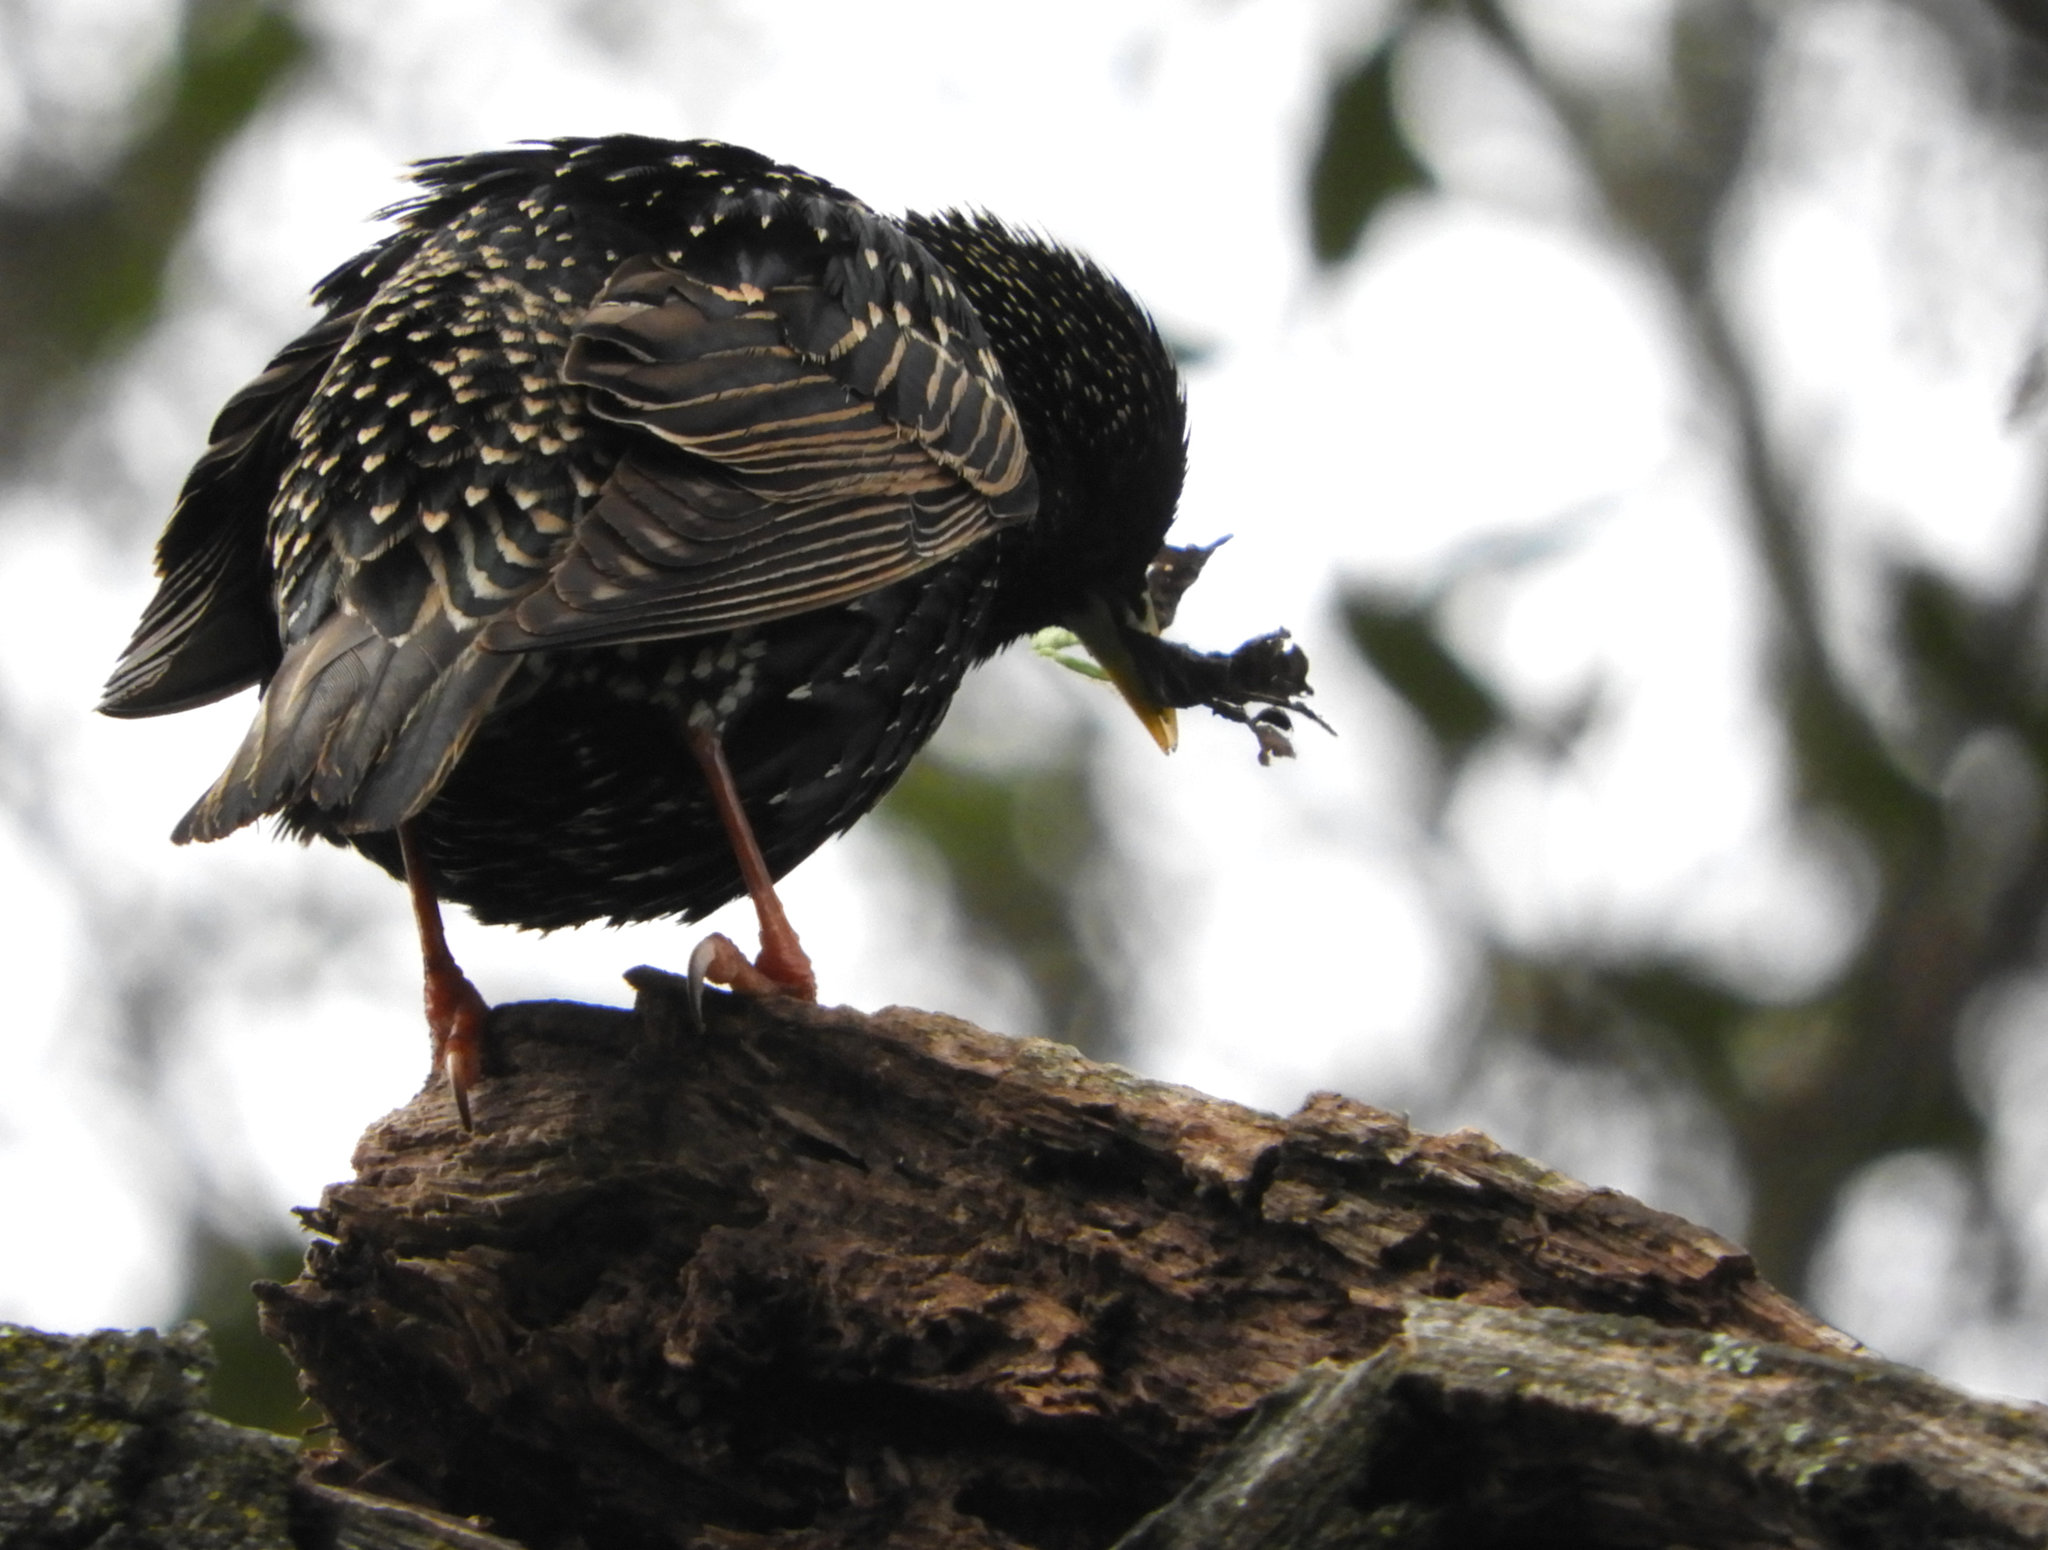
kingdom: Animalia
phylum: Chordata
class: Aves
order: Passeriformes
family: Sturnidae
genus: Sturnus
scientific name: Sturnus vulgaris
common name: Common starling
